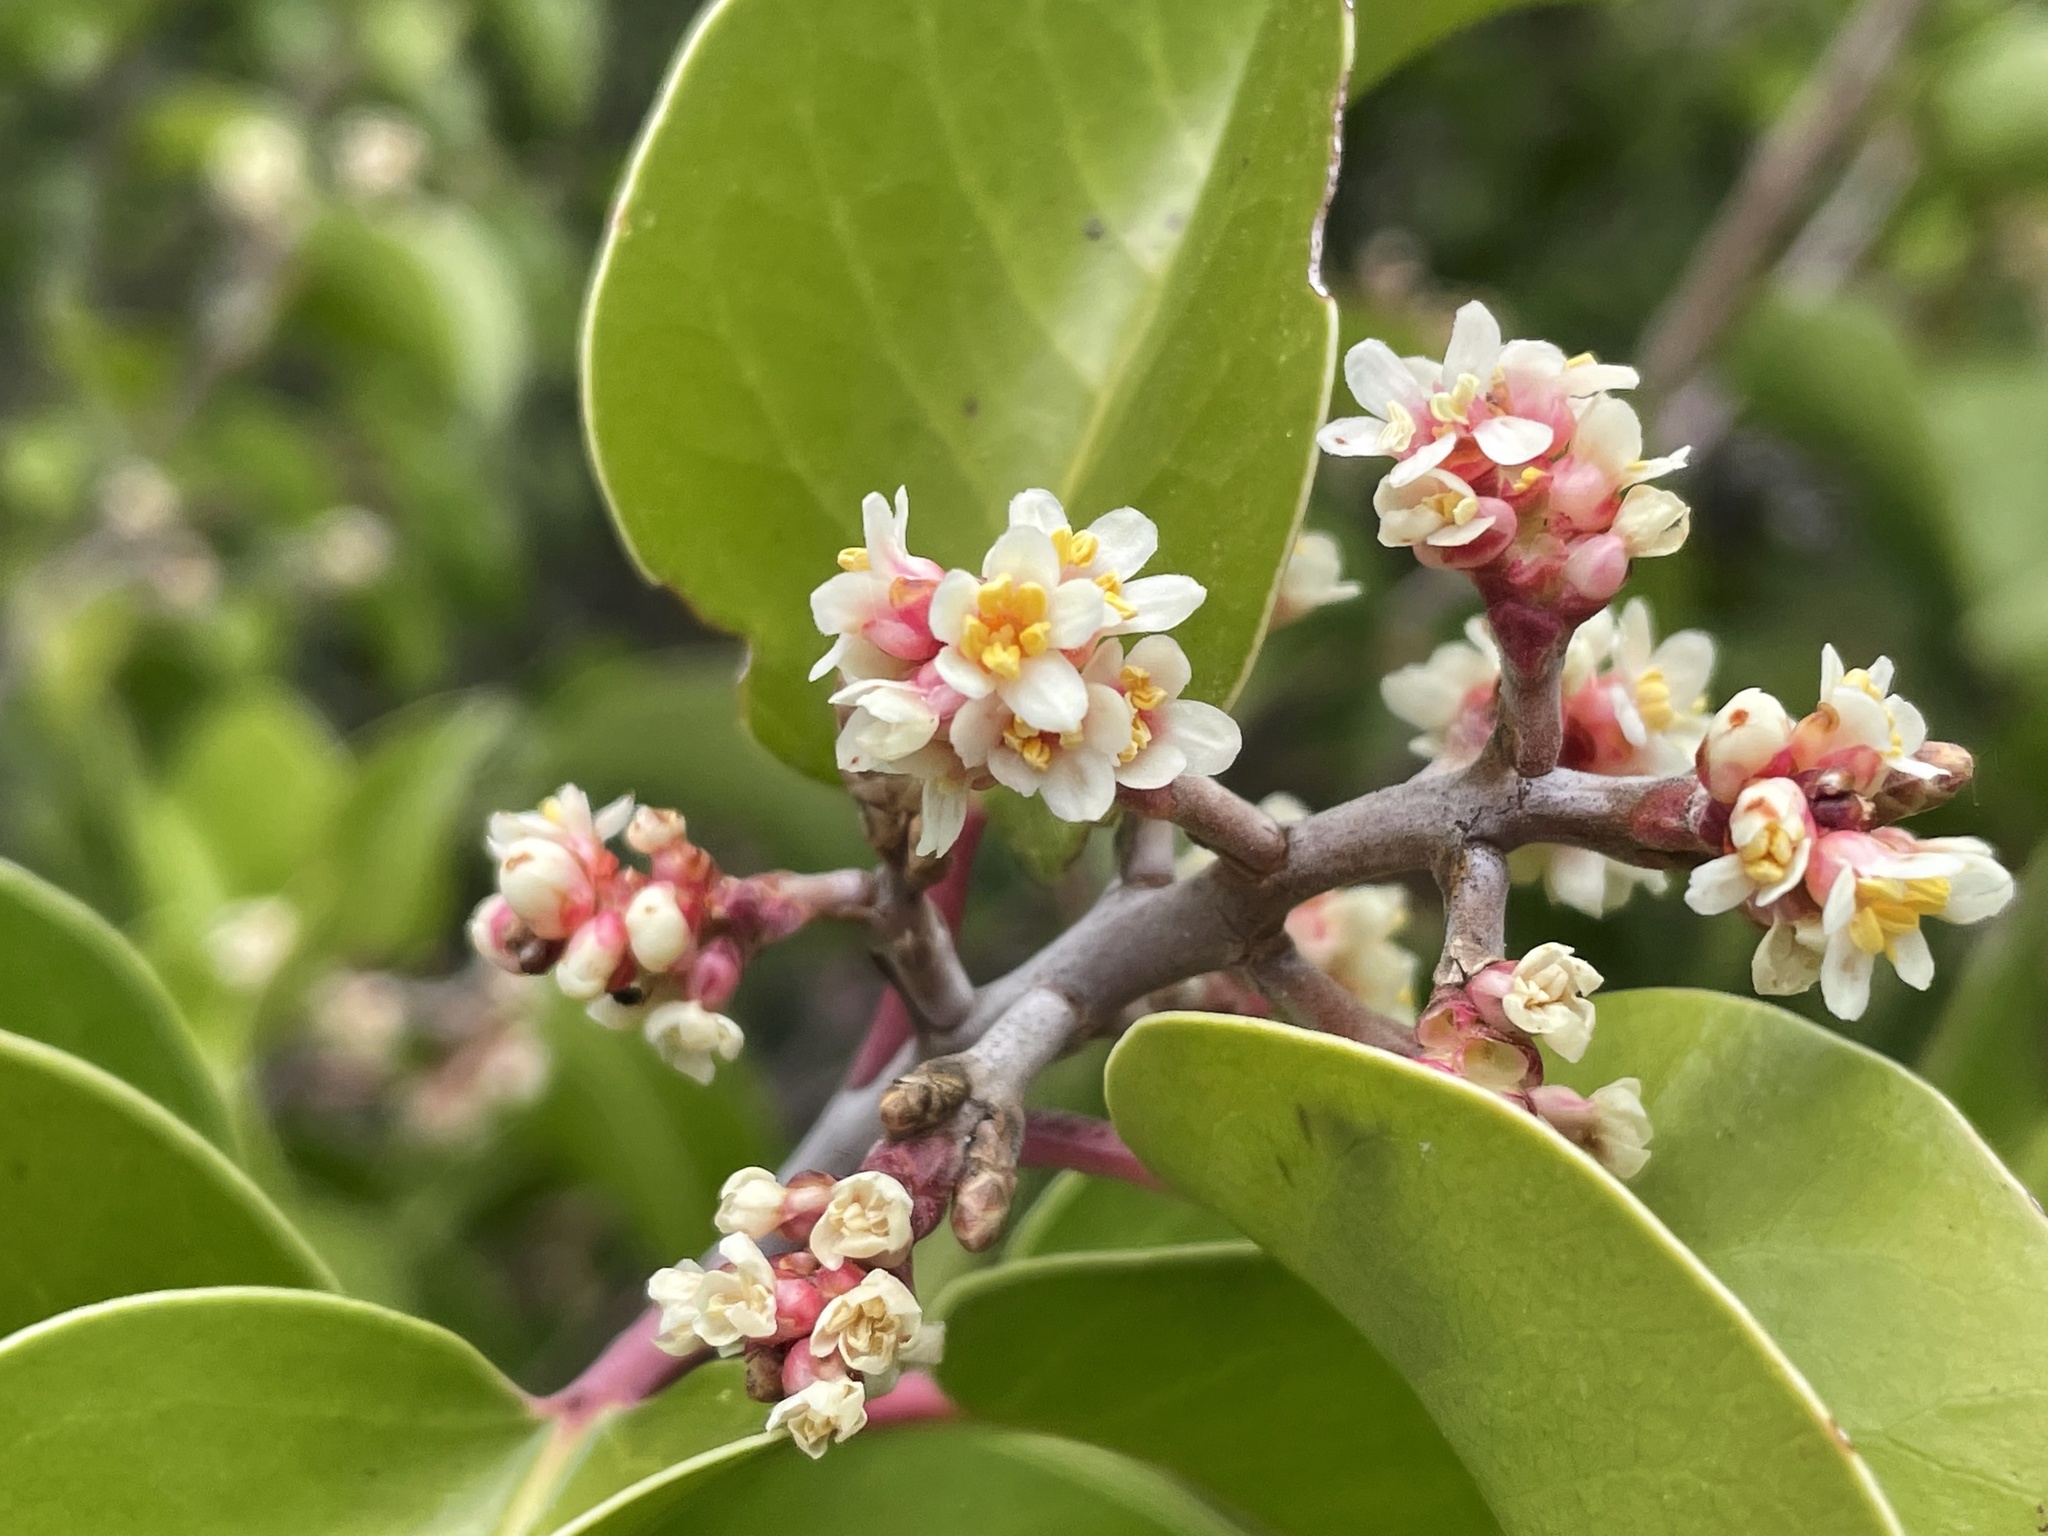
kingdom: Plantae
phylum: Tracheophyta
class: Magnoliopsida
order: Sapindales
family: Anacardiaceae
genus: Rhus
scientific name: Rhus ovata
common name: Sugar sumac
